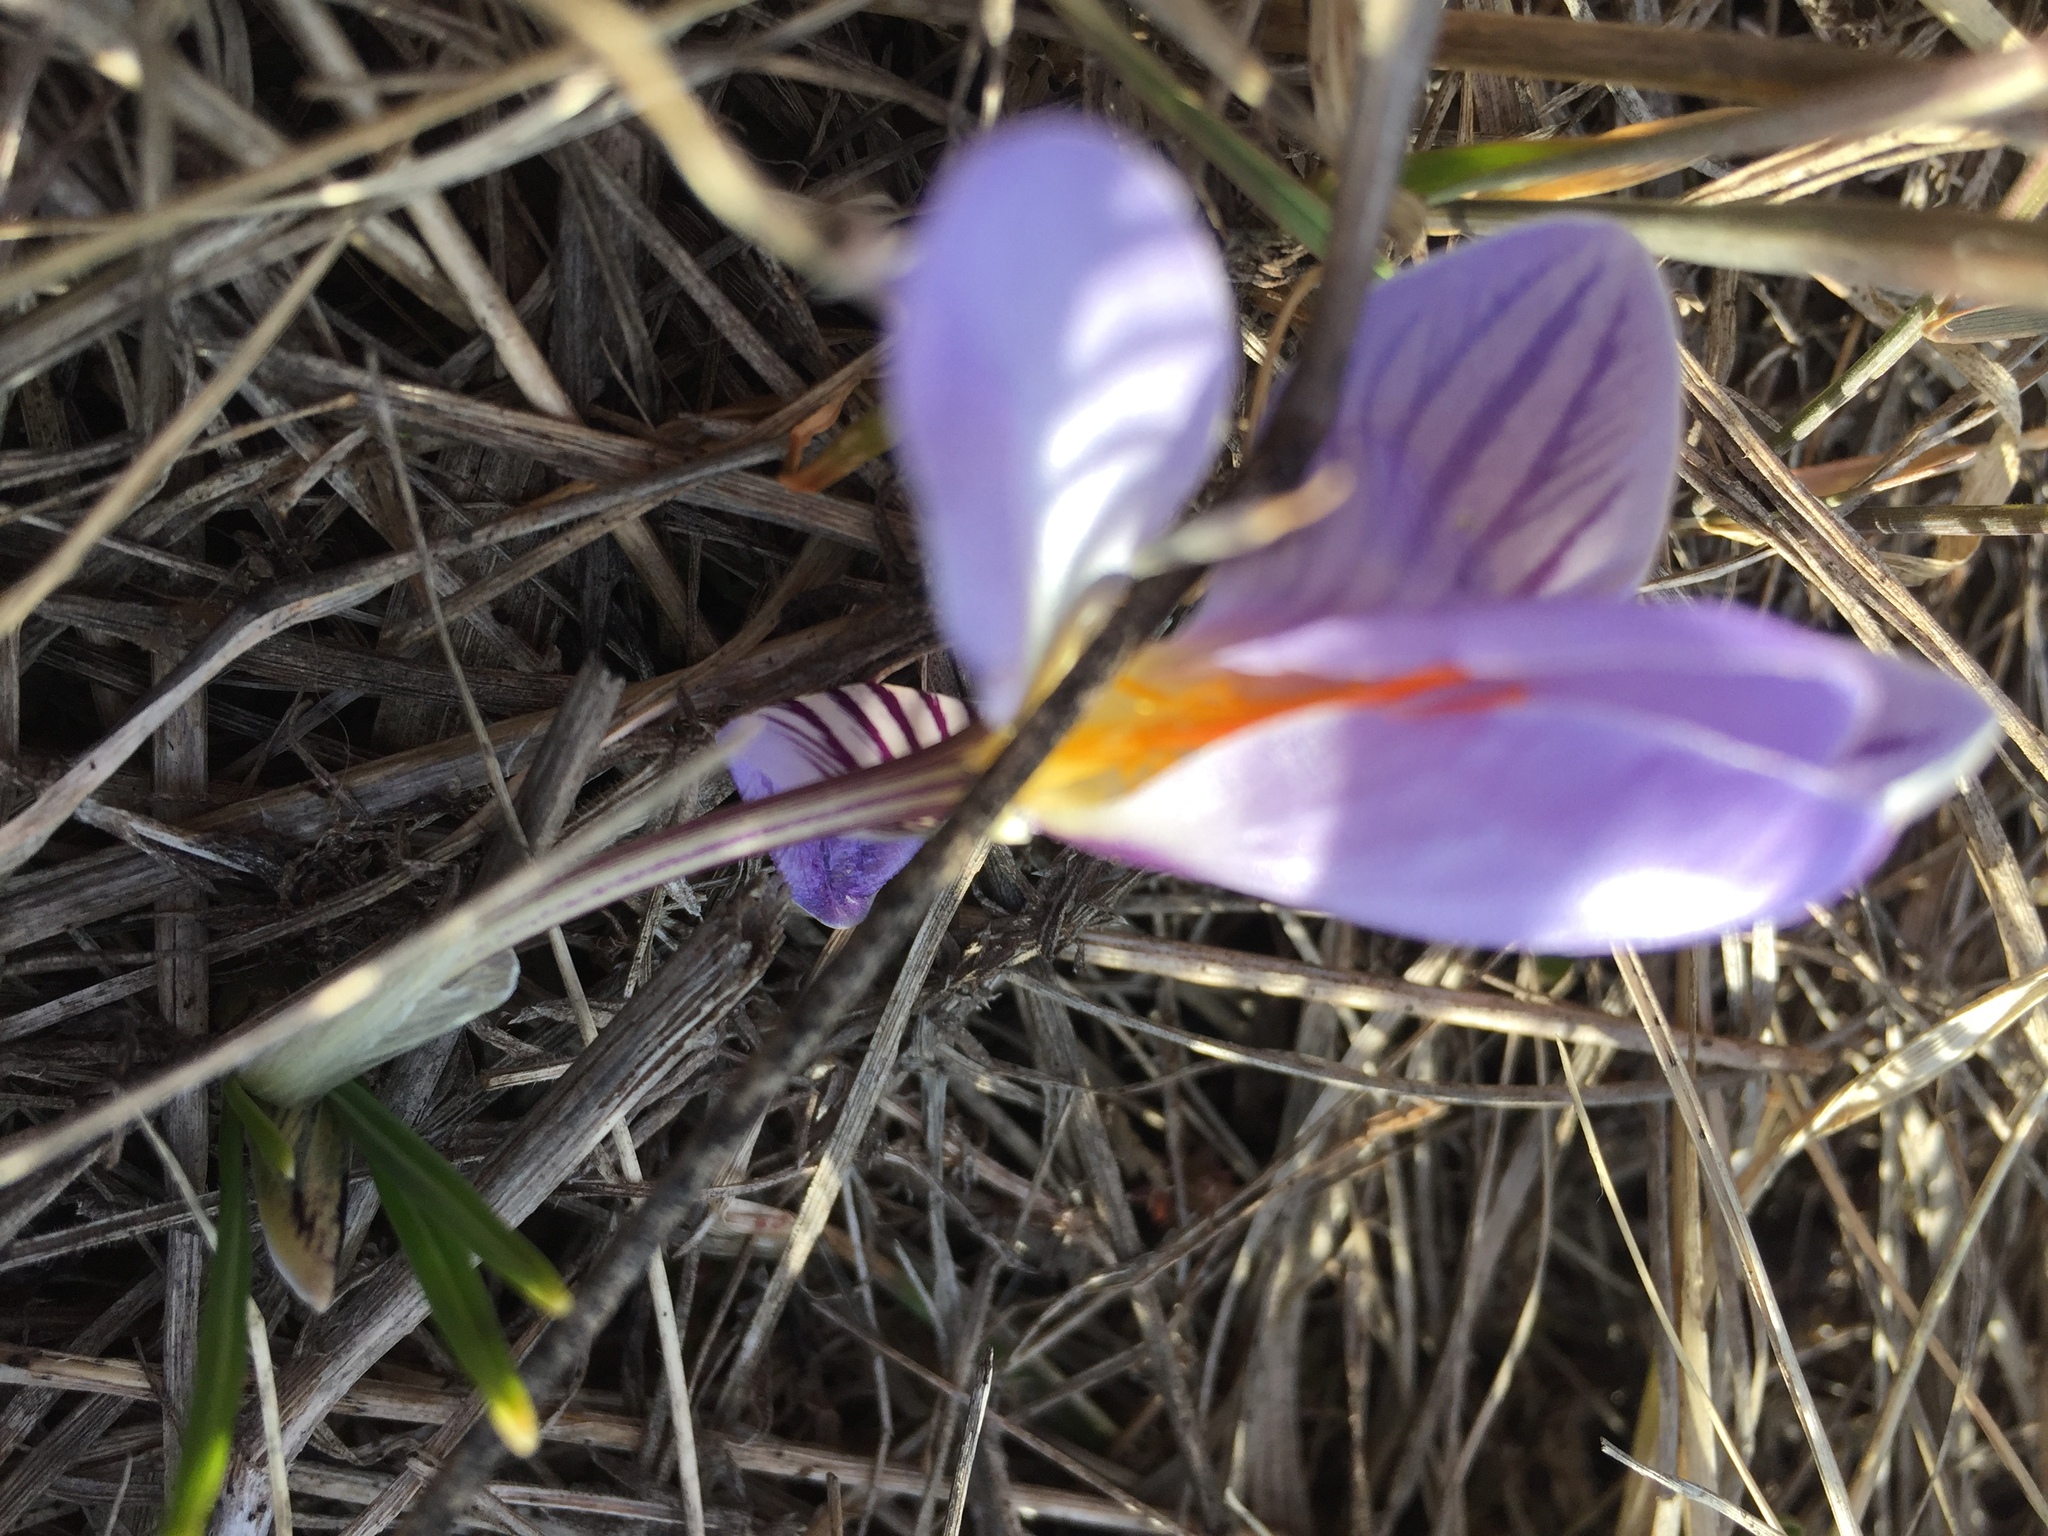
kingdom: Plantae
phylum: Tracheophyta
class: Liliopsida
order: Asparagales
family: Iridaceae
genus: Crocus
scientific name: Crocus reticulatus
